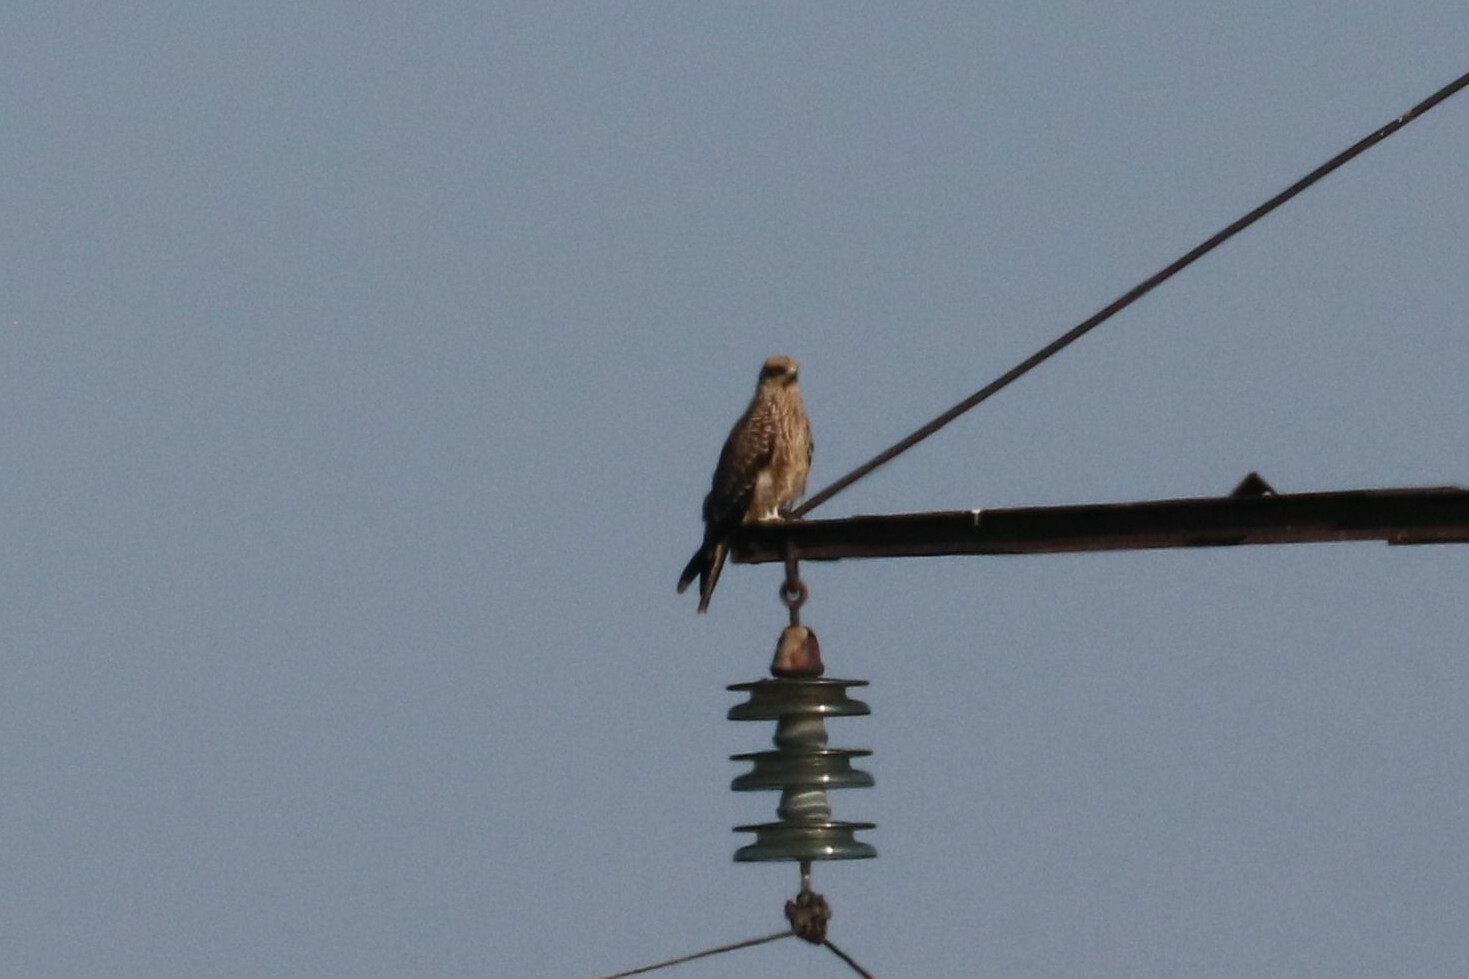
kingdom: Animalia
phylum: Chordata
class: Aves
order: Accipitriformes
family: Accipitridae
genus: Milvus
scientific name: Milvus migrans
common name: Black kite
